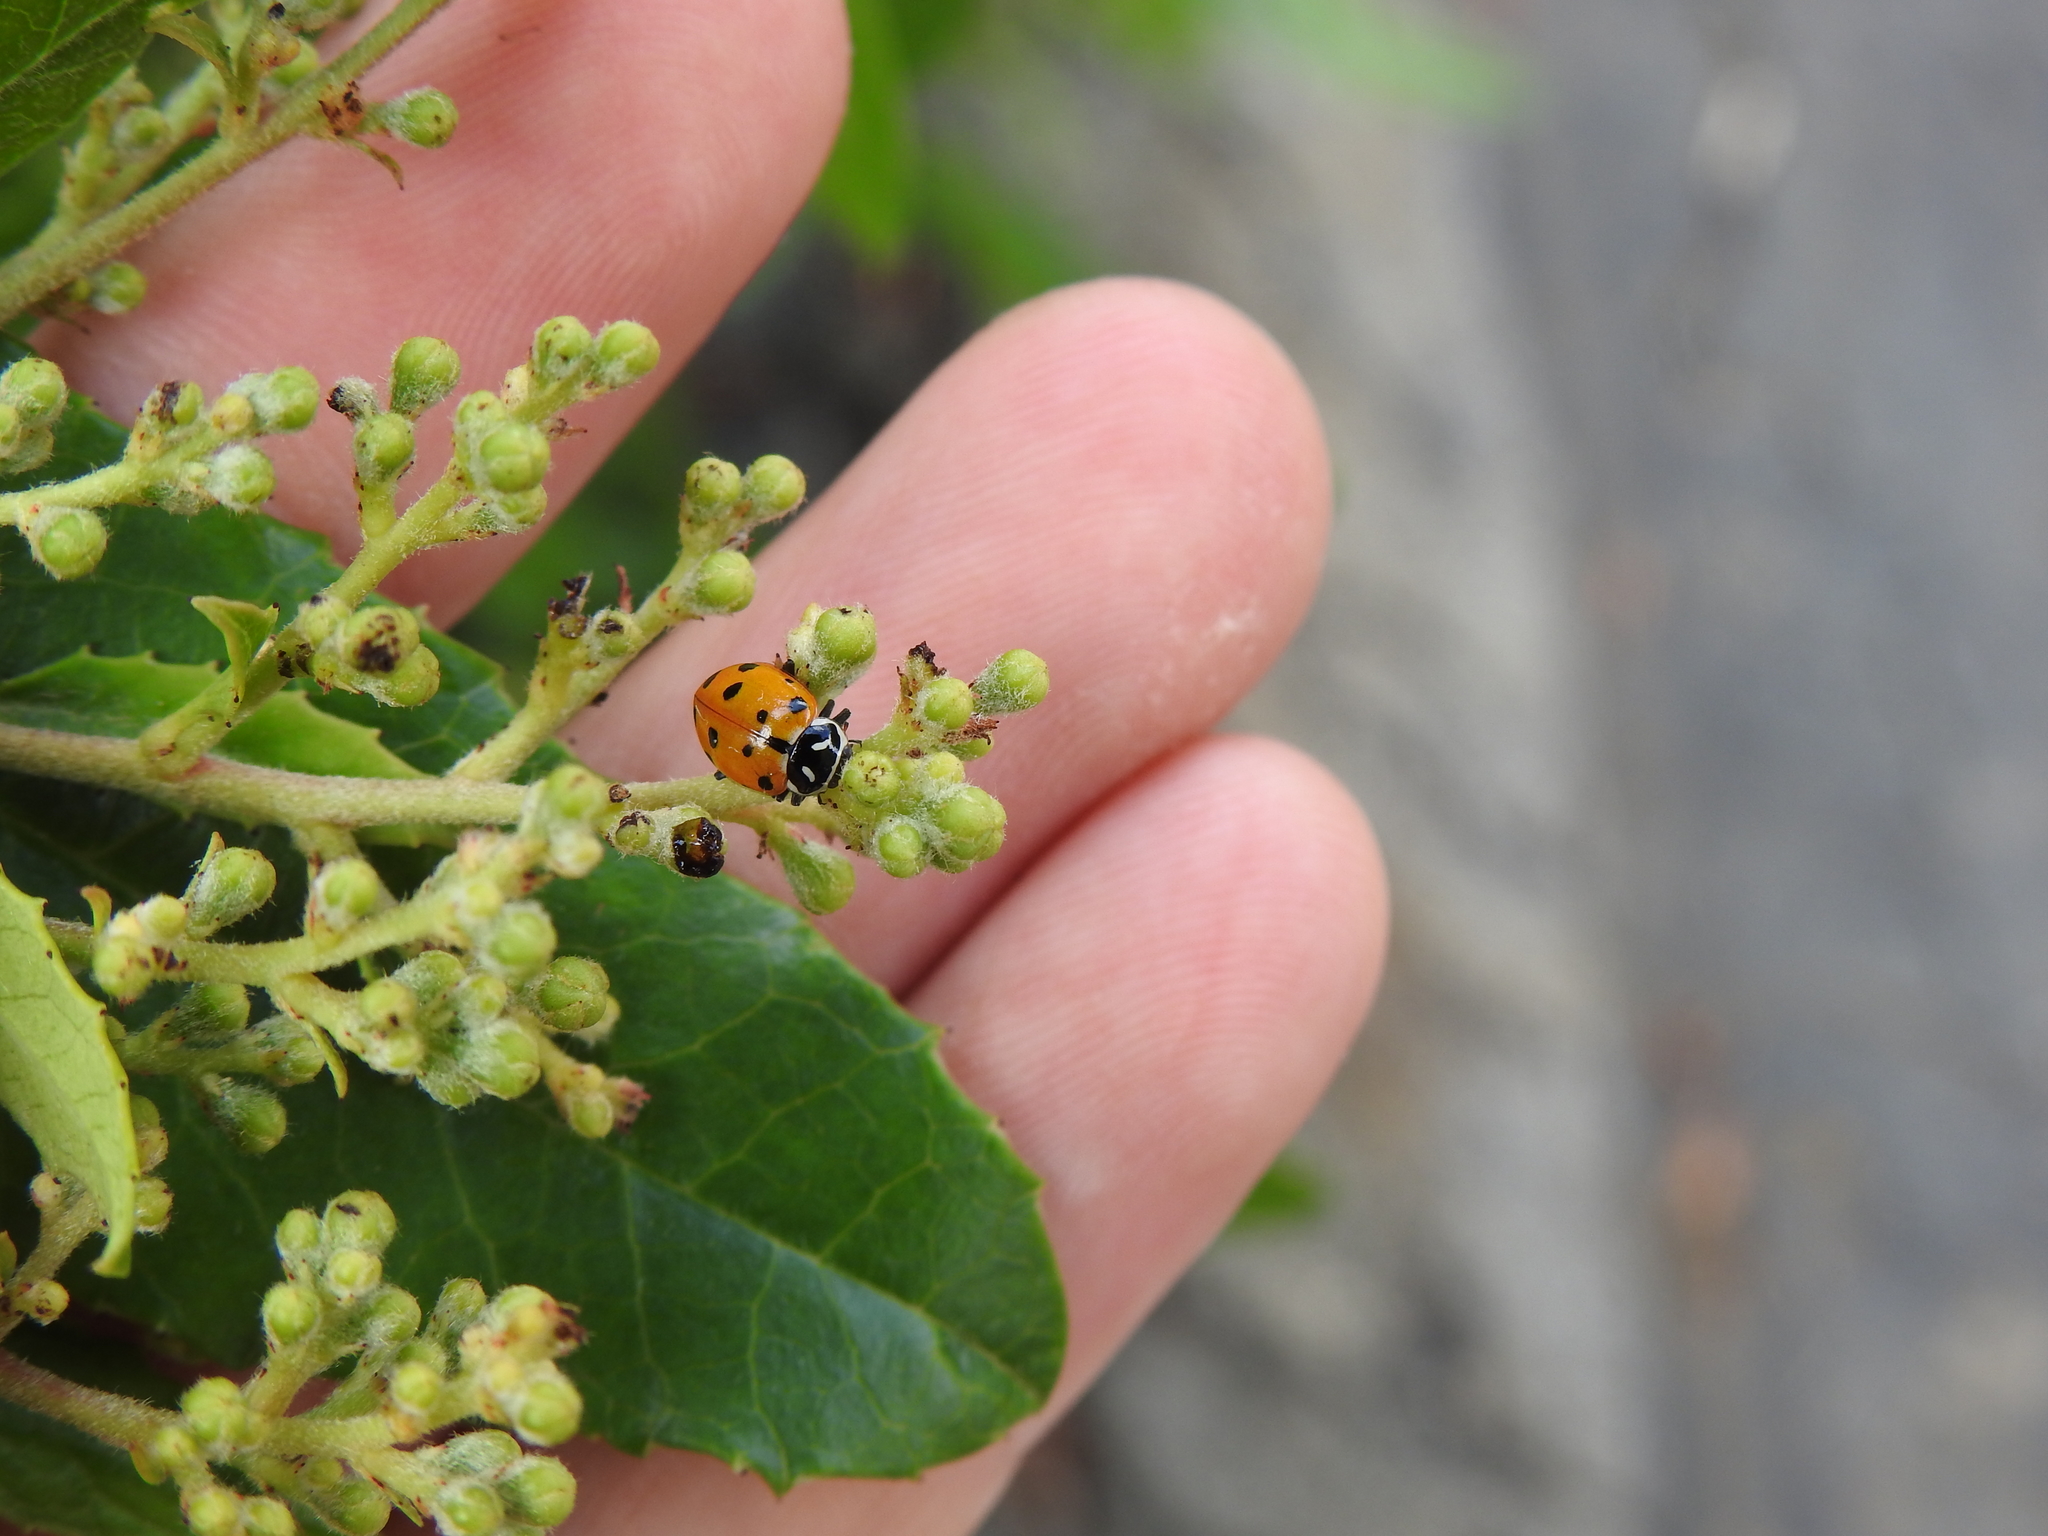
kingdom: Animalia
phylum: Arthropoda
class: Insecta
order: Coleoptera
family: Coccinellidae
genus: Hippodamia
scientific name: Hippodamia convergens
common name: Convergent lady beetle
